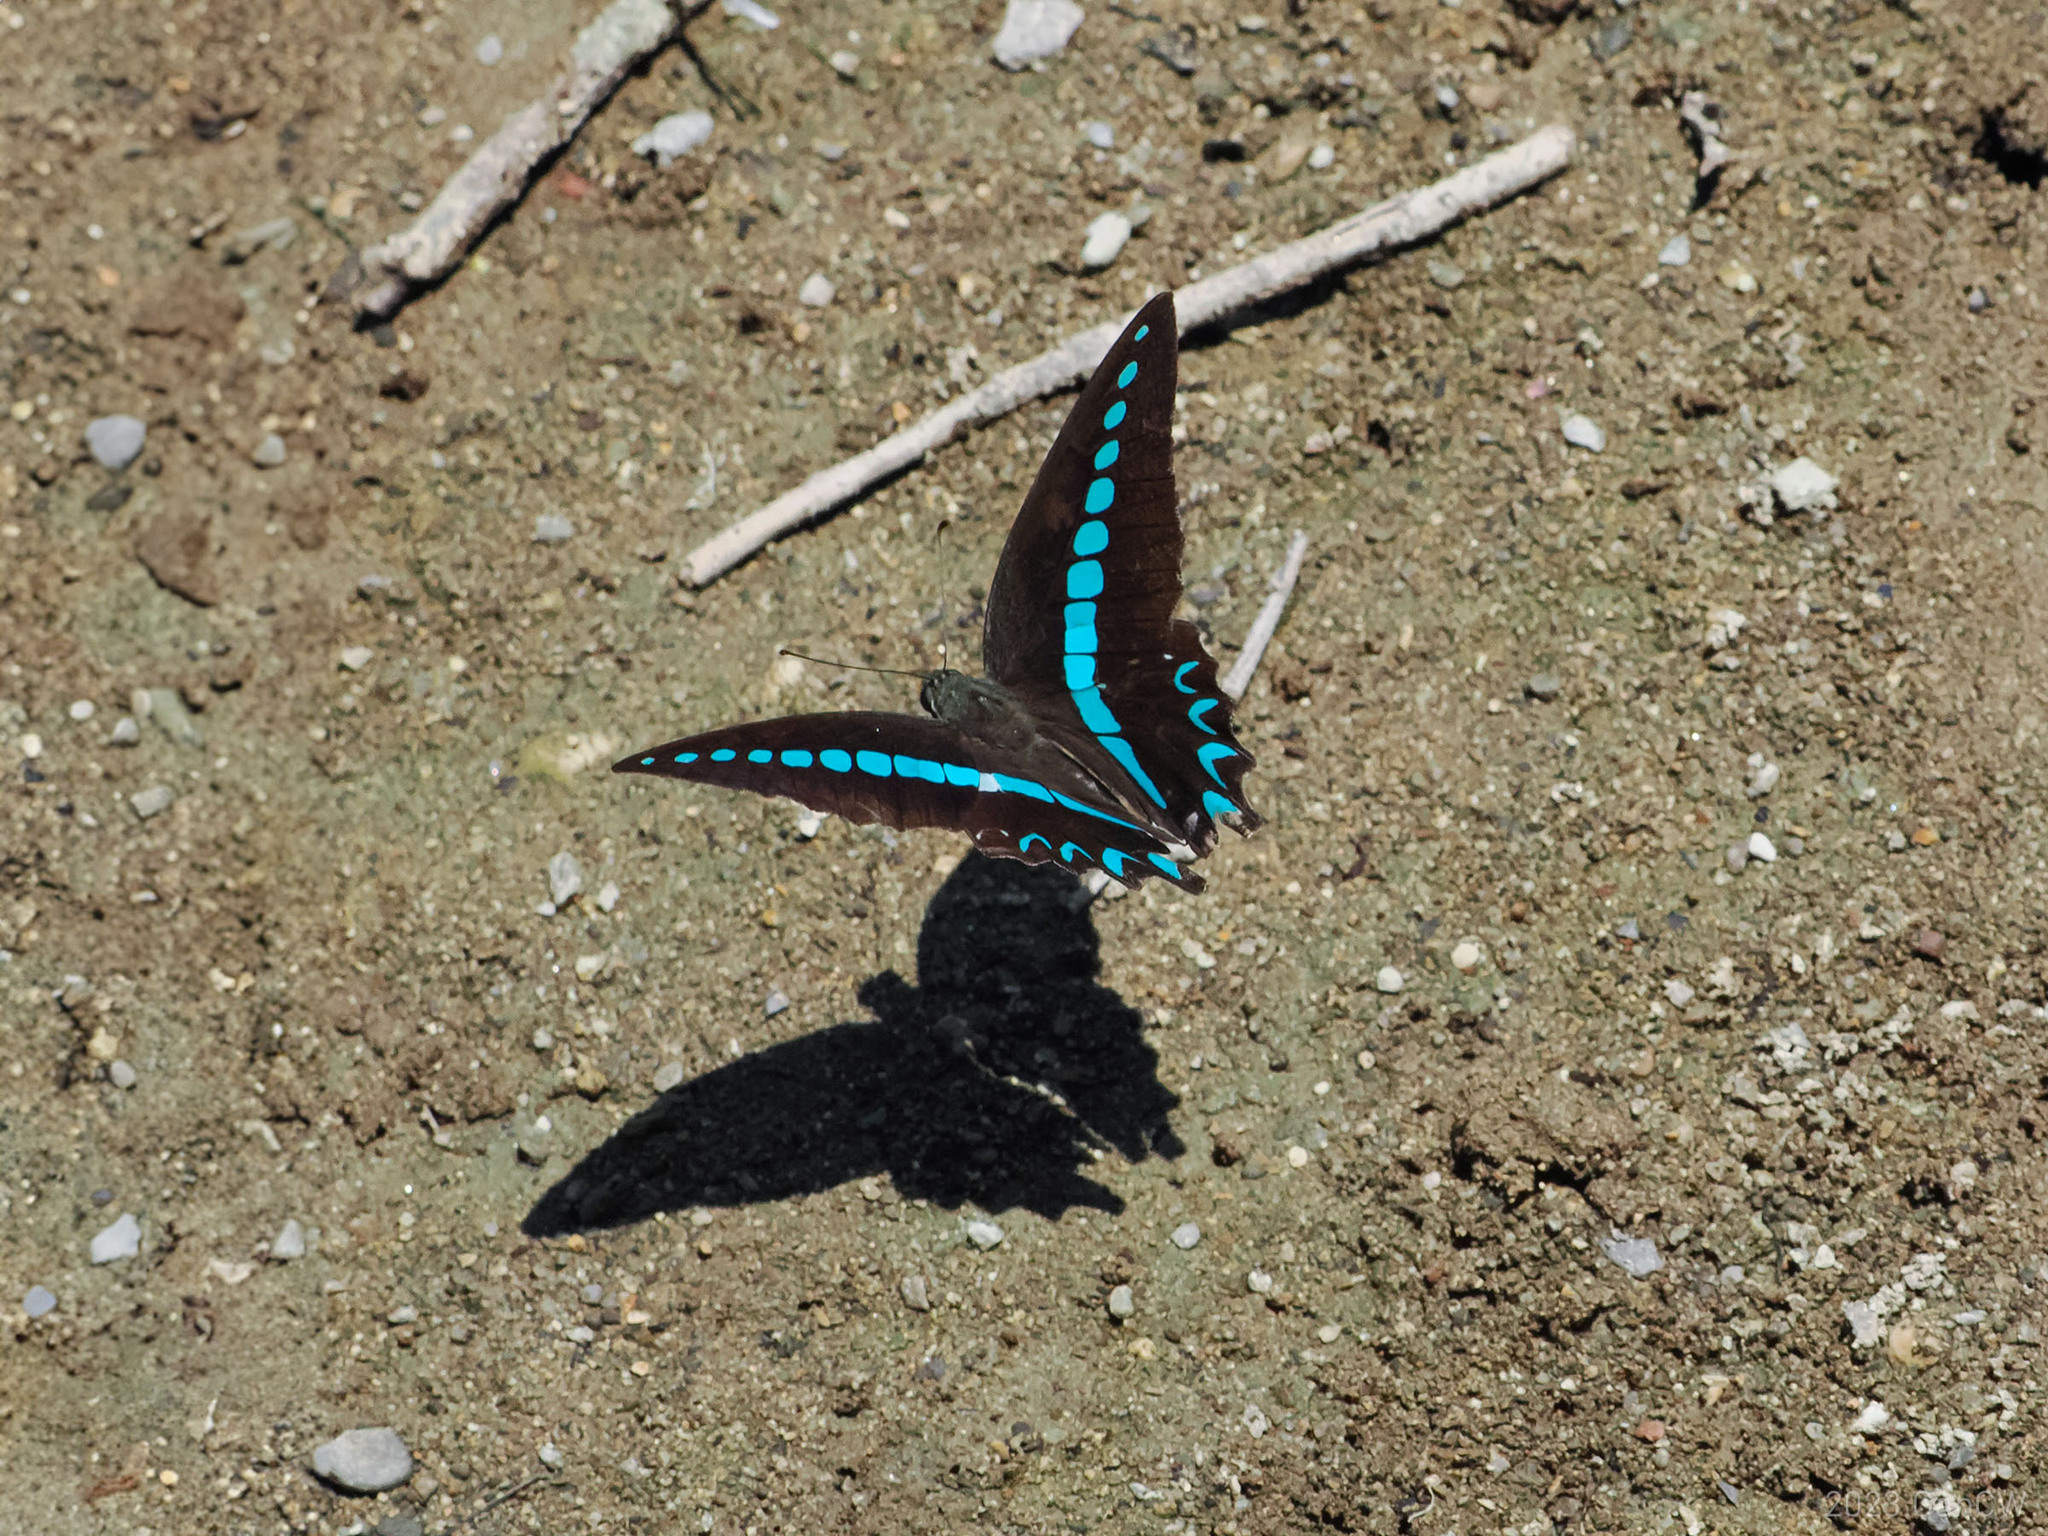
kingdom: Animalia
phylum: Arthropoda
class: Insecta
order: Lepidoptera
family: Papilionidae
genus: Graphium
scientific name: Graphium milon
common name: Milon's swallowtail
